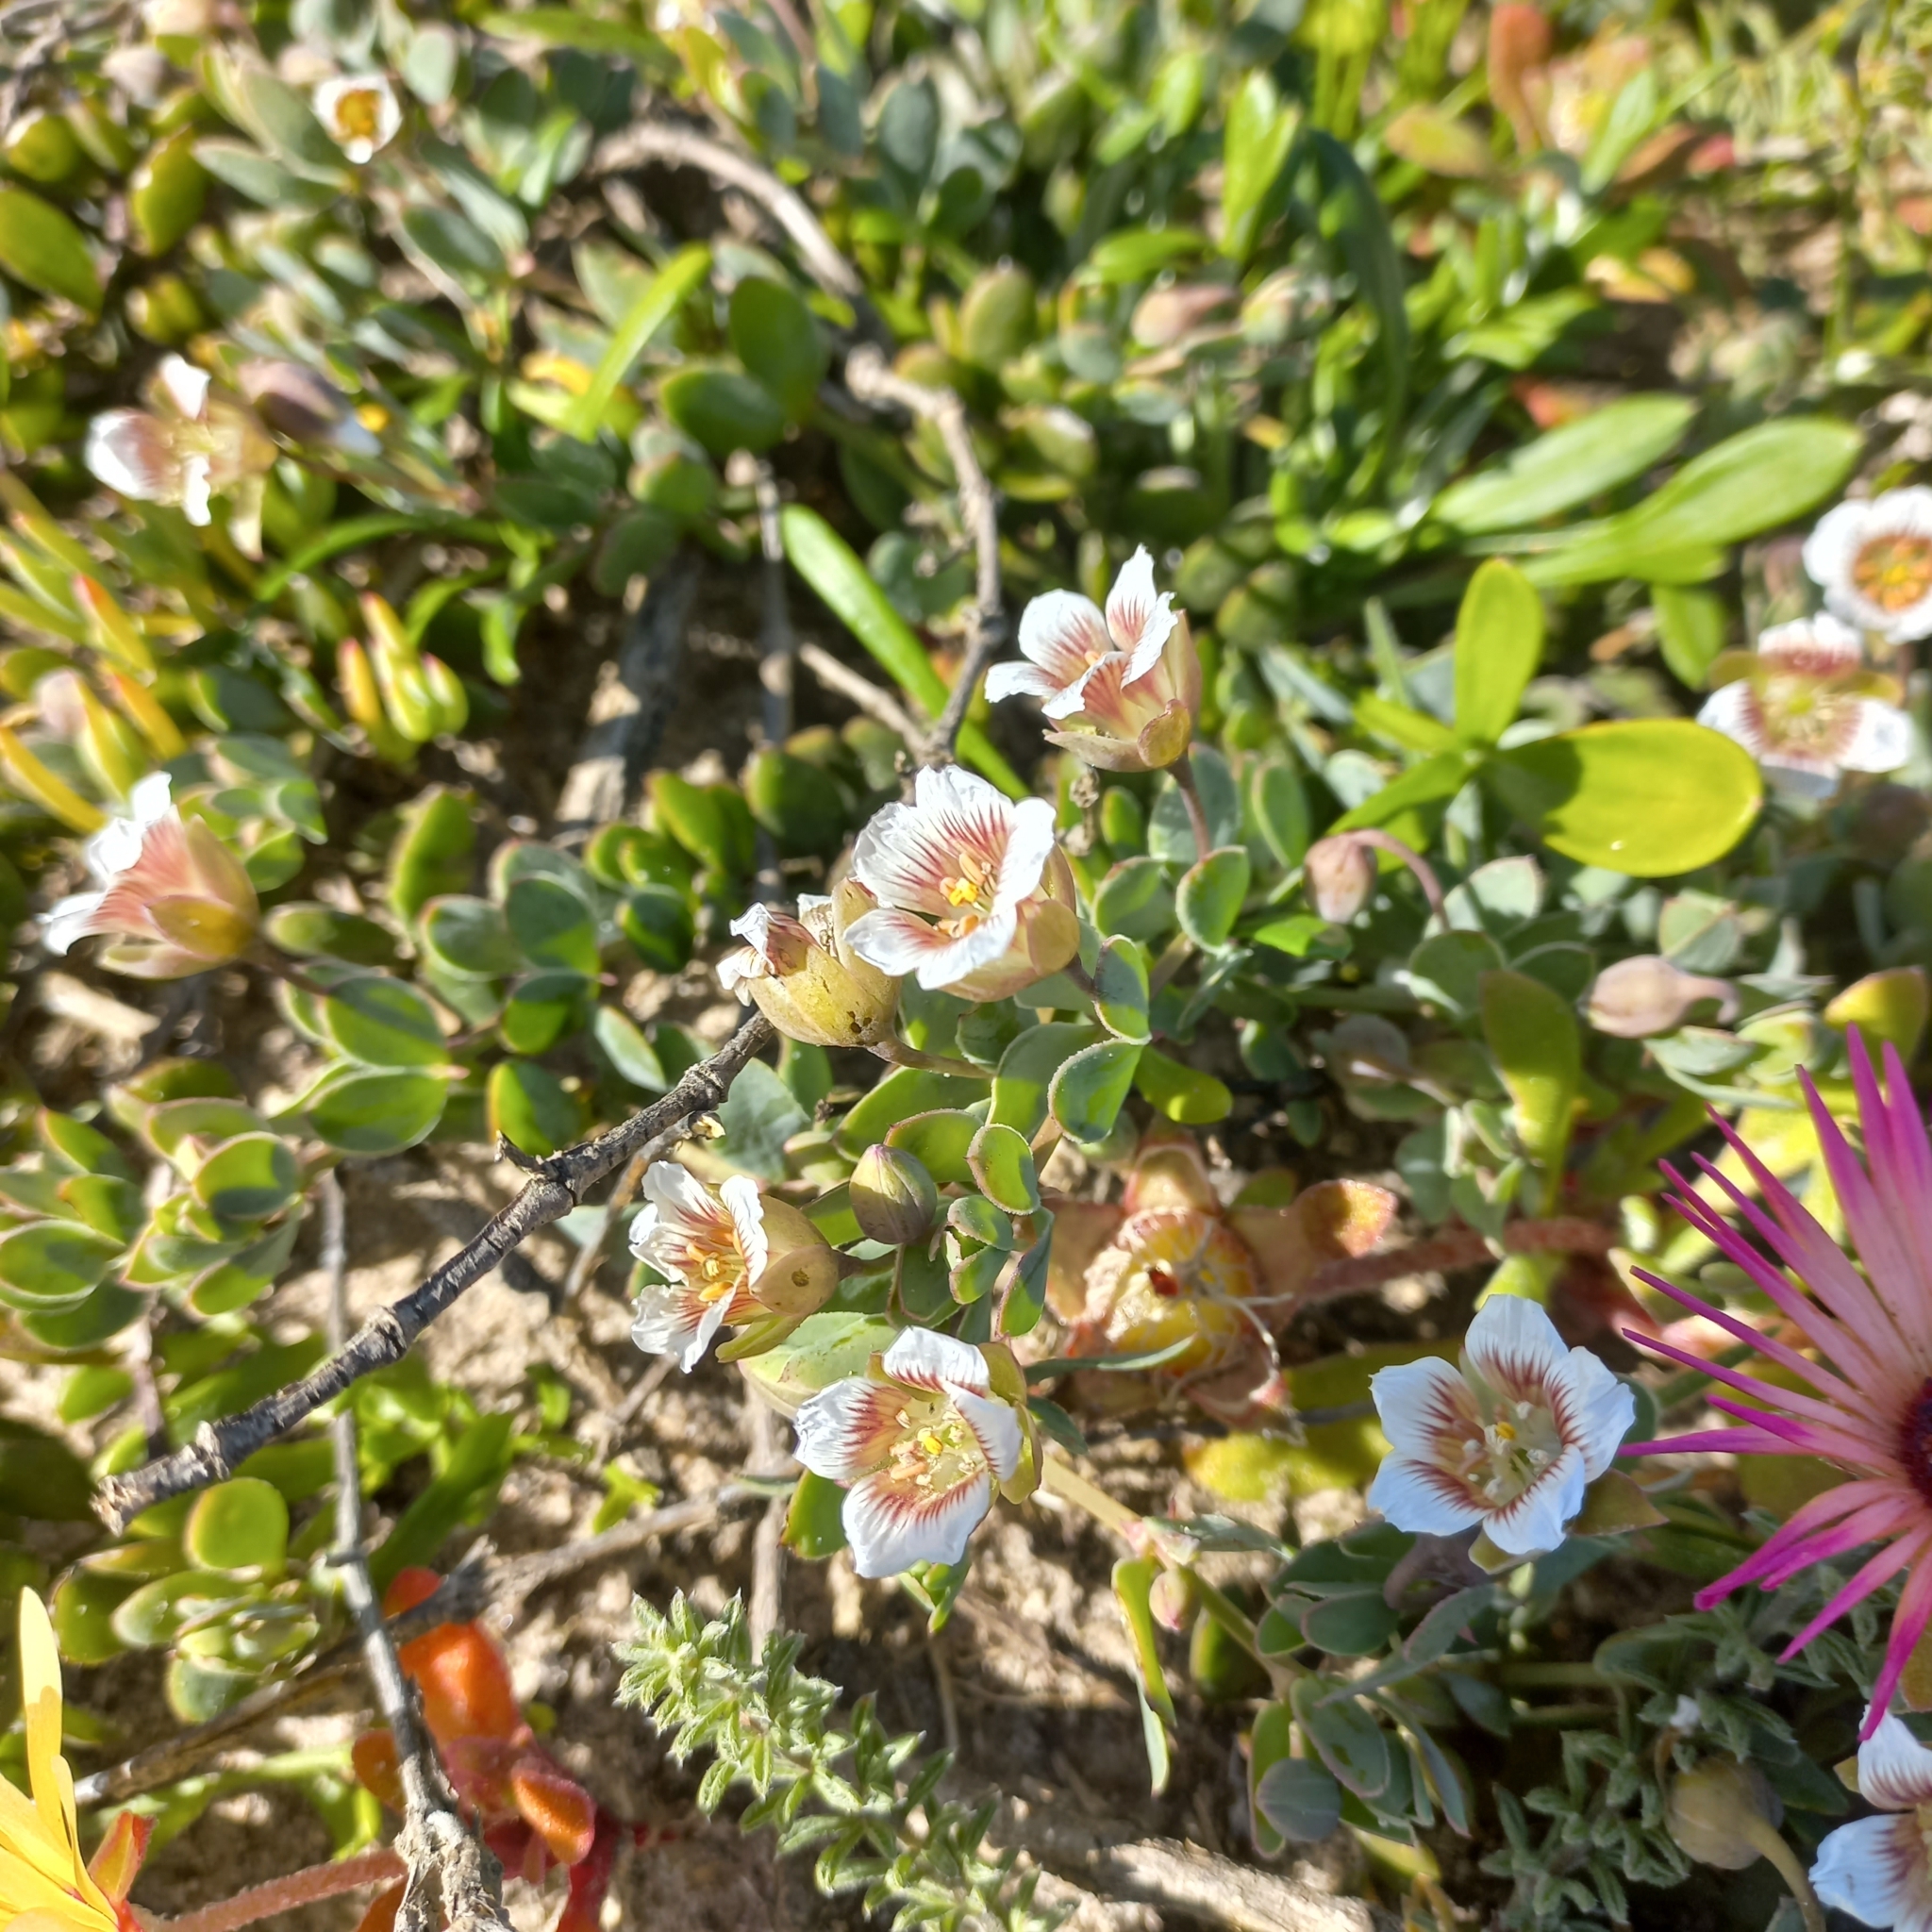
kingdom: Plantae
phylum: Tracheophyta
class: Magnoliopsida
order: Zygophyllales
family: Zygophyllaceae
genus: Roepera
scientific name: Roepera sessilifolia
